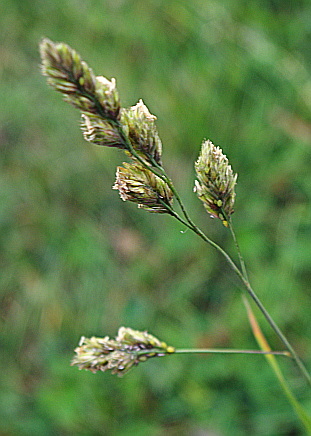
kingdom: Plantae
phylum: Tracheophyta
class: Liliopsida
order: Poales
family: Poaceae
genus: Dactylis
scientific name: Dactylis glomerata
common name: Orchardgrass
